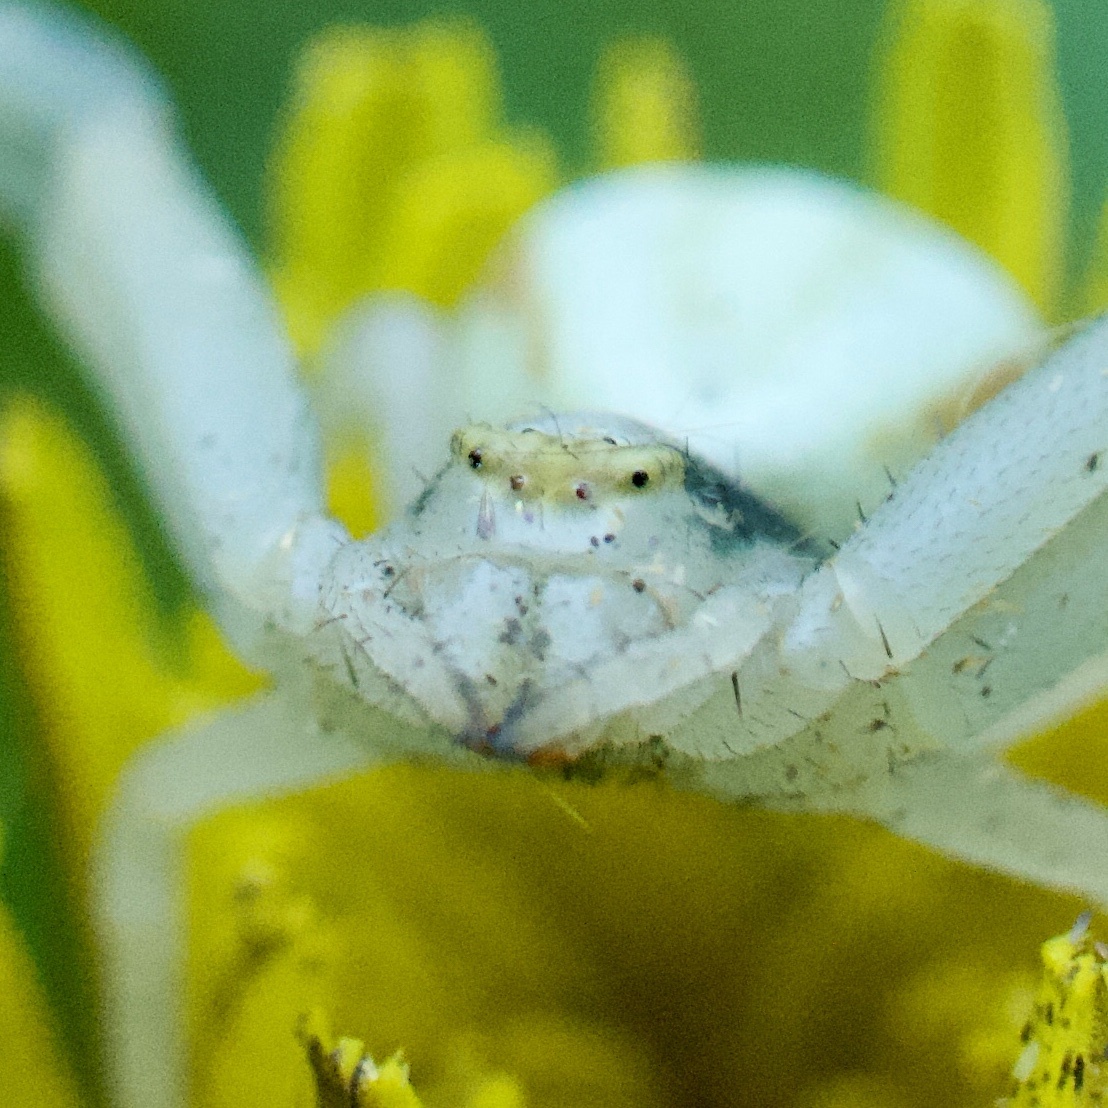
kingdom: Animalia
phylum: Arthropoda
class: Arachnida
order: Araneae
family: Thomisidae
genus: Misumena
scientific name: Misumena vatia
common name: Goldenrod crab spider
